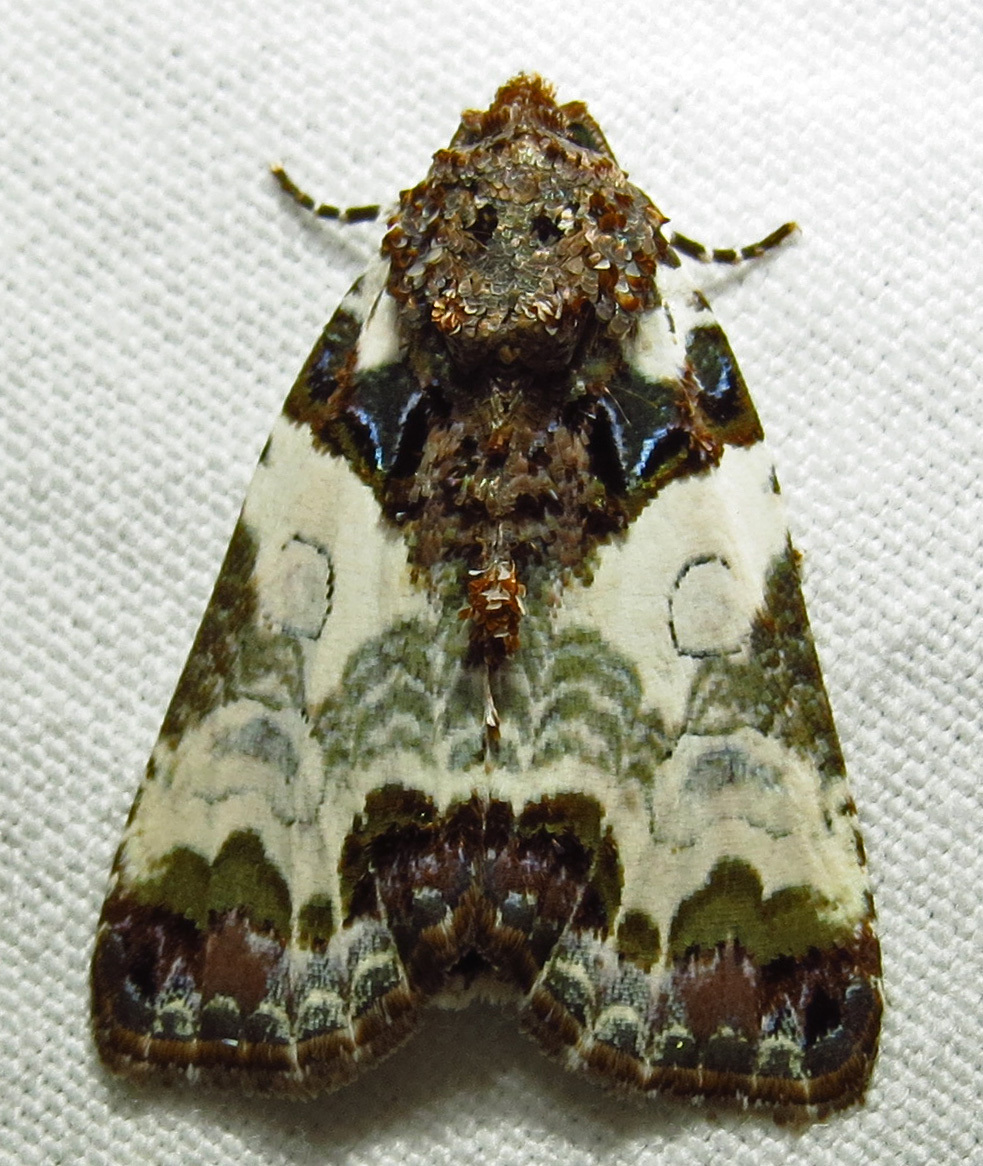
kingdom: Animalia
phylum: Arthropoda
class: Insecta
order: Lepidoptera
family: Noctuidae
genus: Cerma
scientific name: Cerma cerintha
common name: Tufted bird-dropping moth
